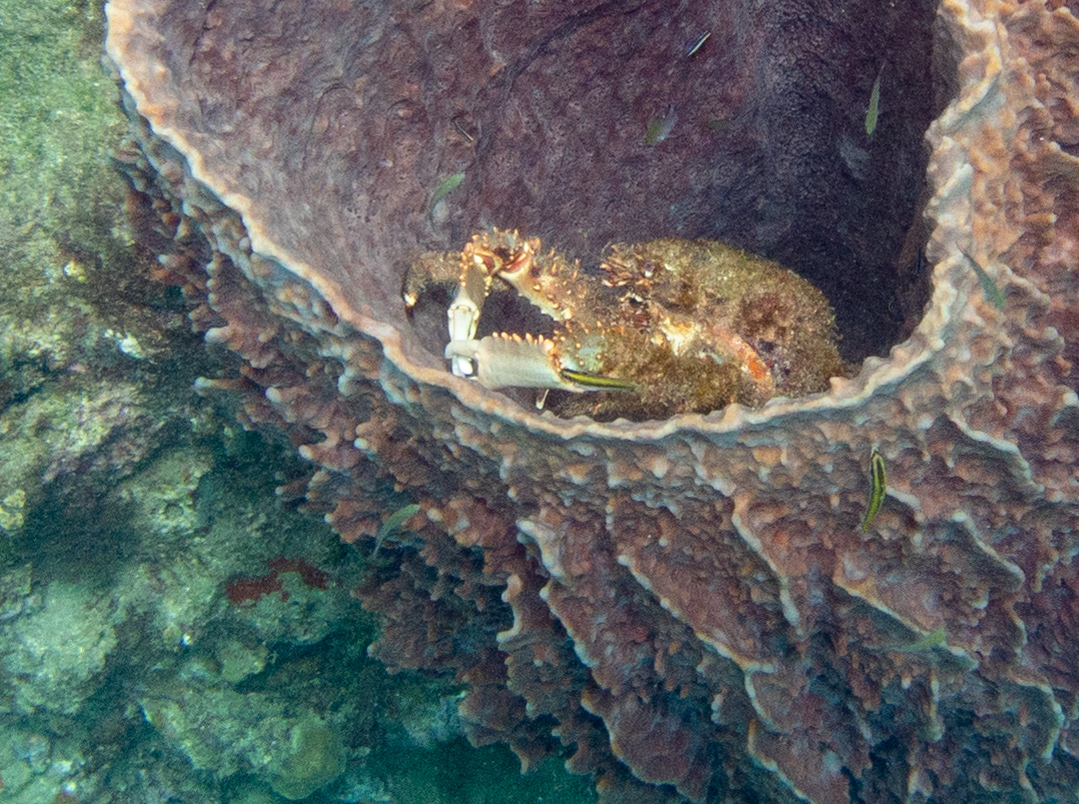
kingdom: Animalia
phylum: Arthropoda
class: Malacostraca
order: Decapoda
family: Mithracidae
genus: Amphithrax
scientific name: Amphithrax aculeatus
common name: Granulated spider crab
